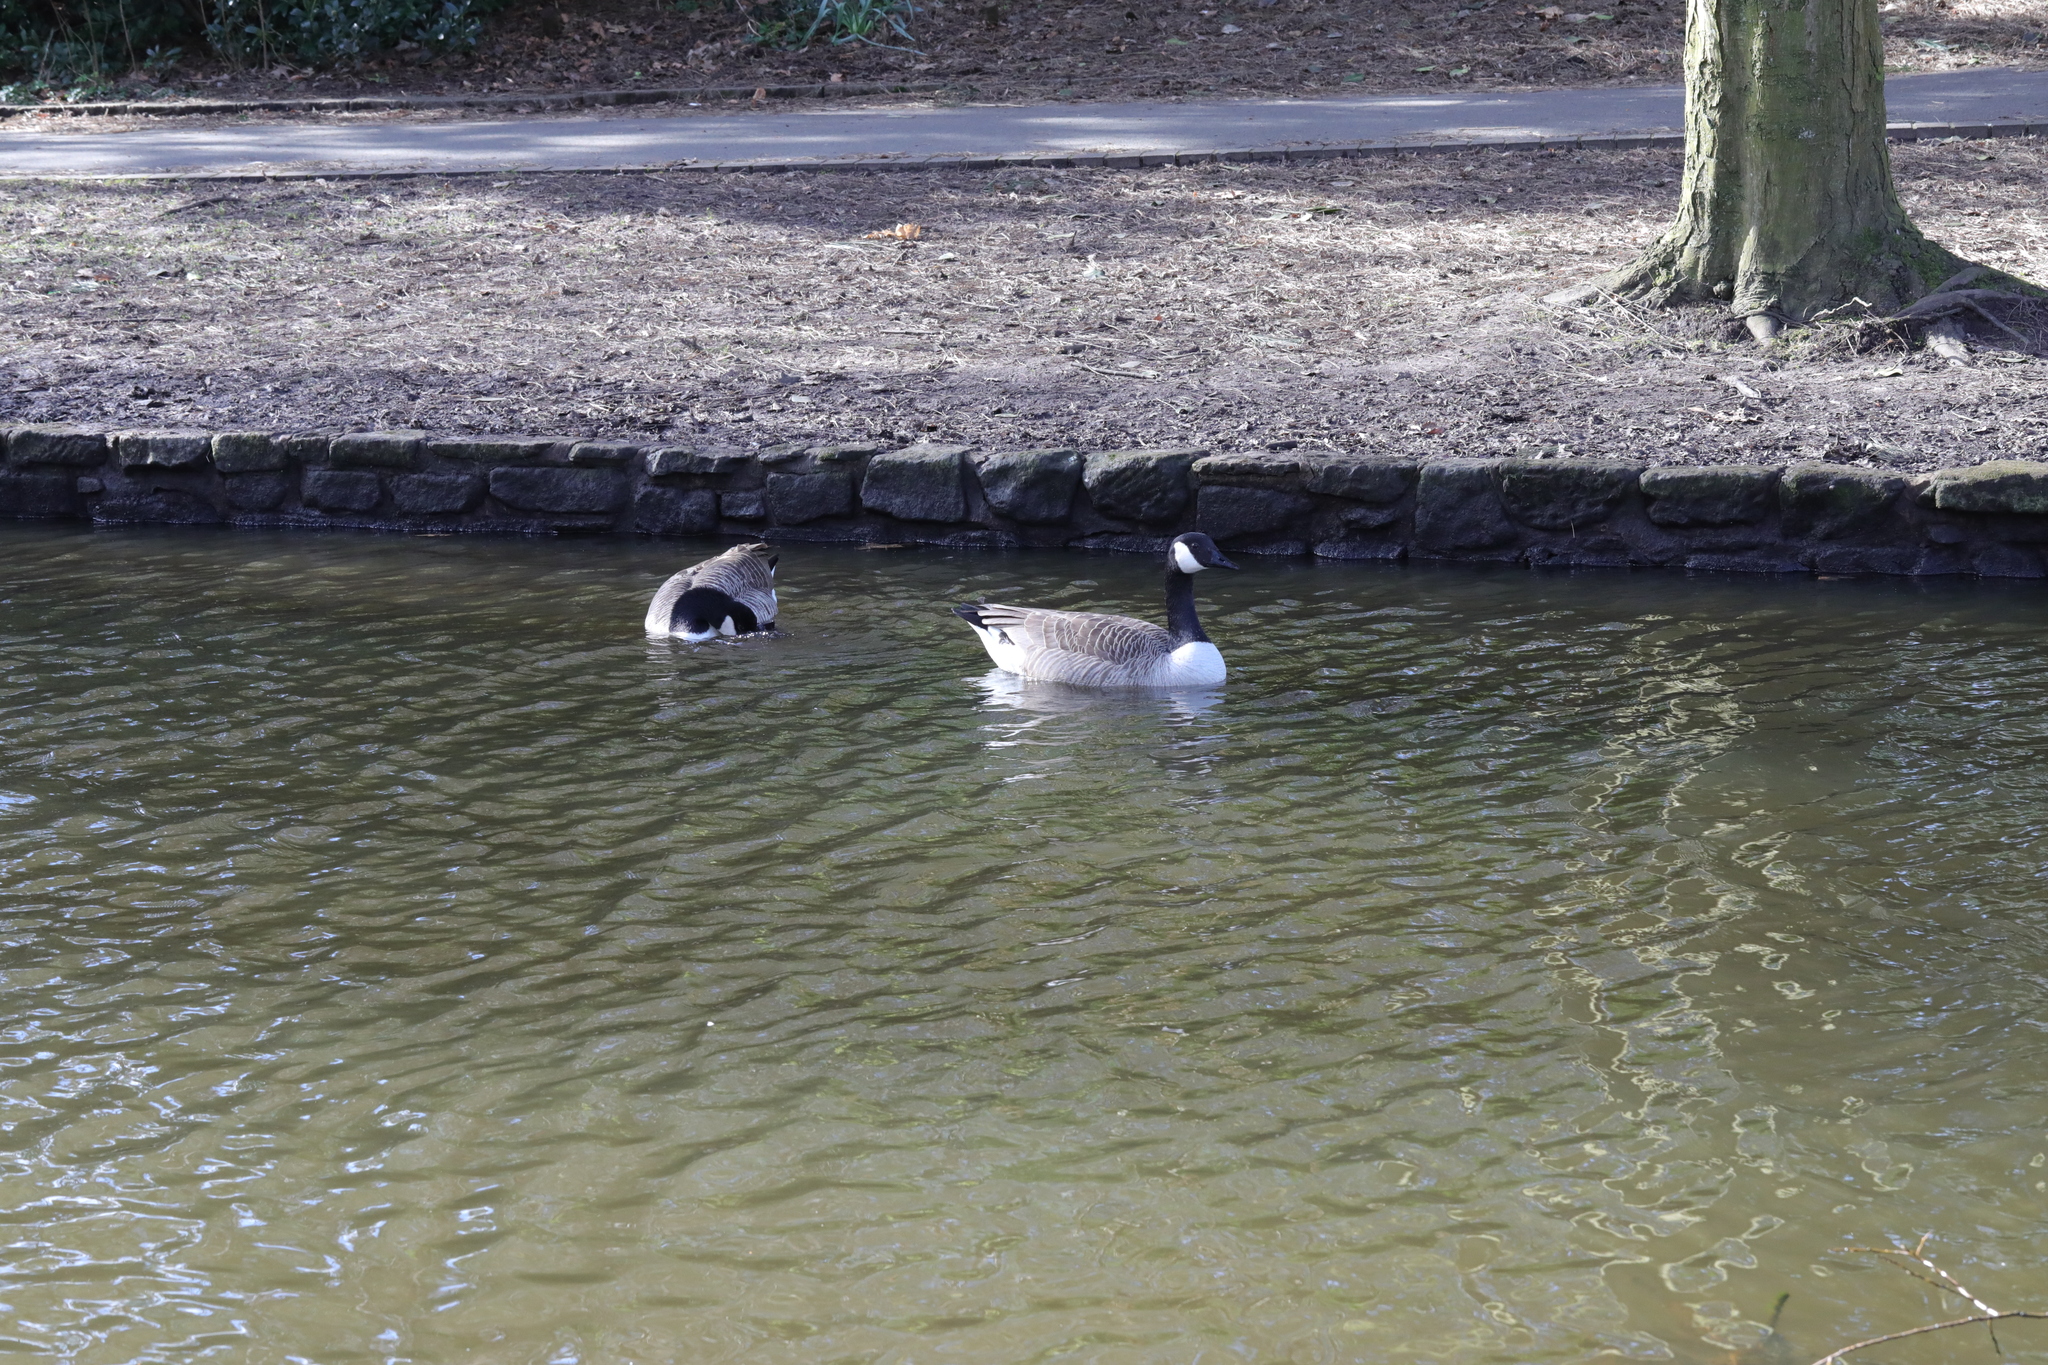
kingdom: Animalia
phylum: Chordata
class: Aves
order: Anseriformes
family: Anatidae
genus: Branta
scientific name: Branta canadensis
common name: Canada goose
